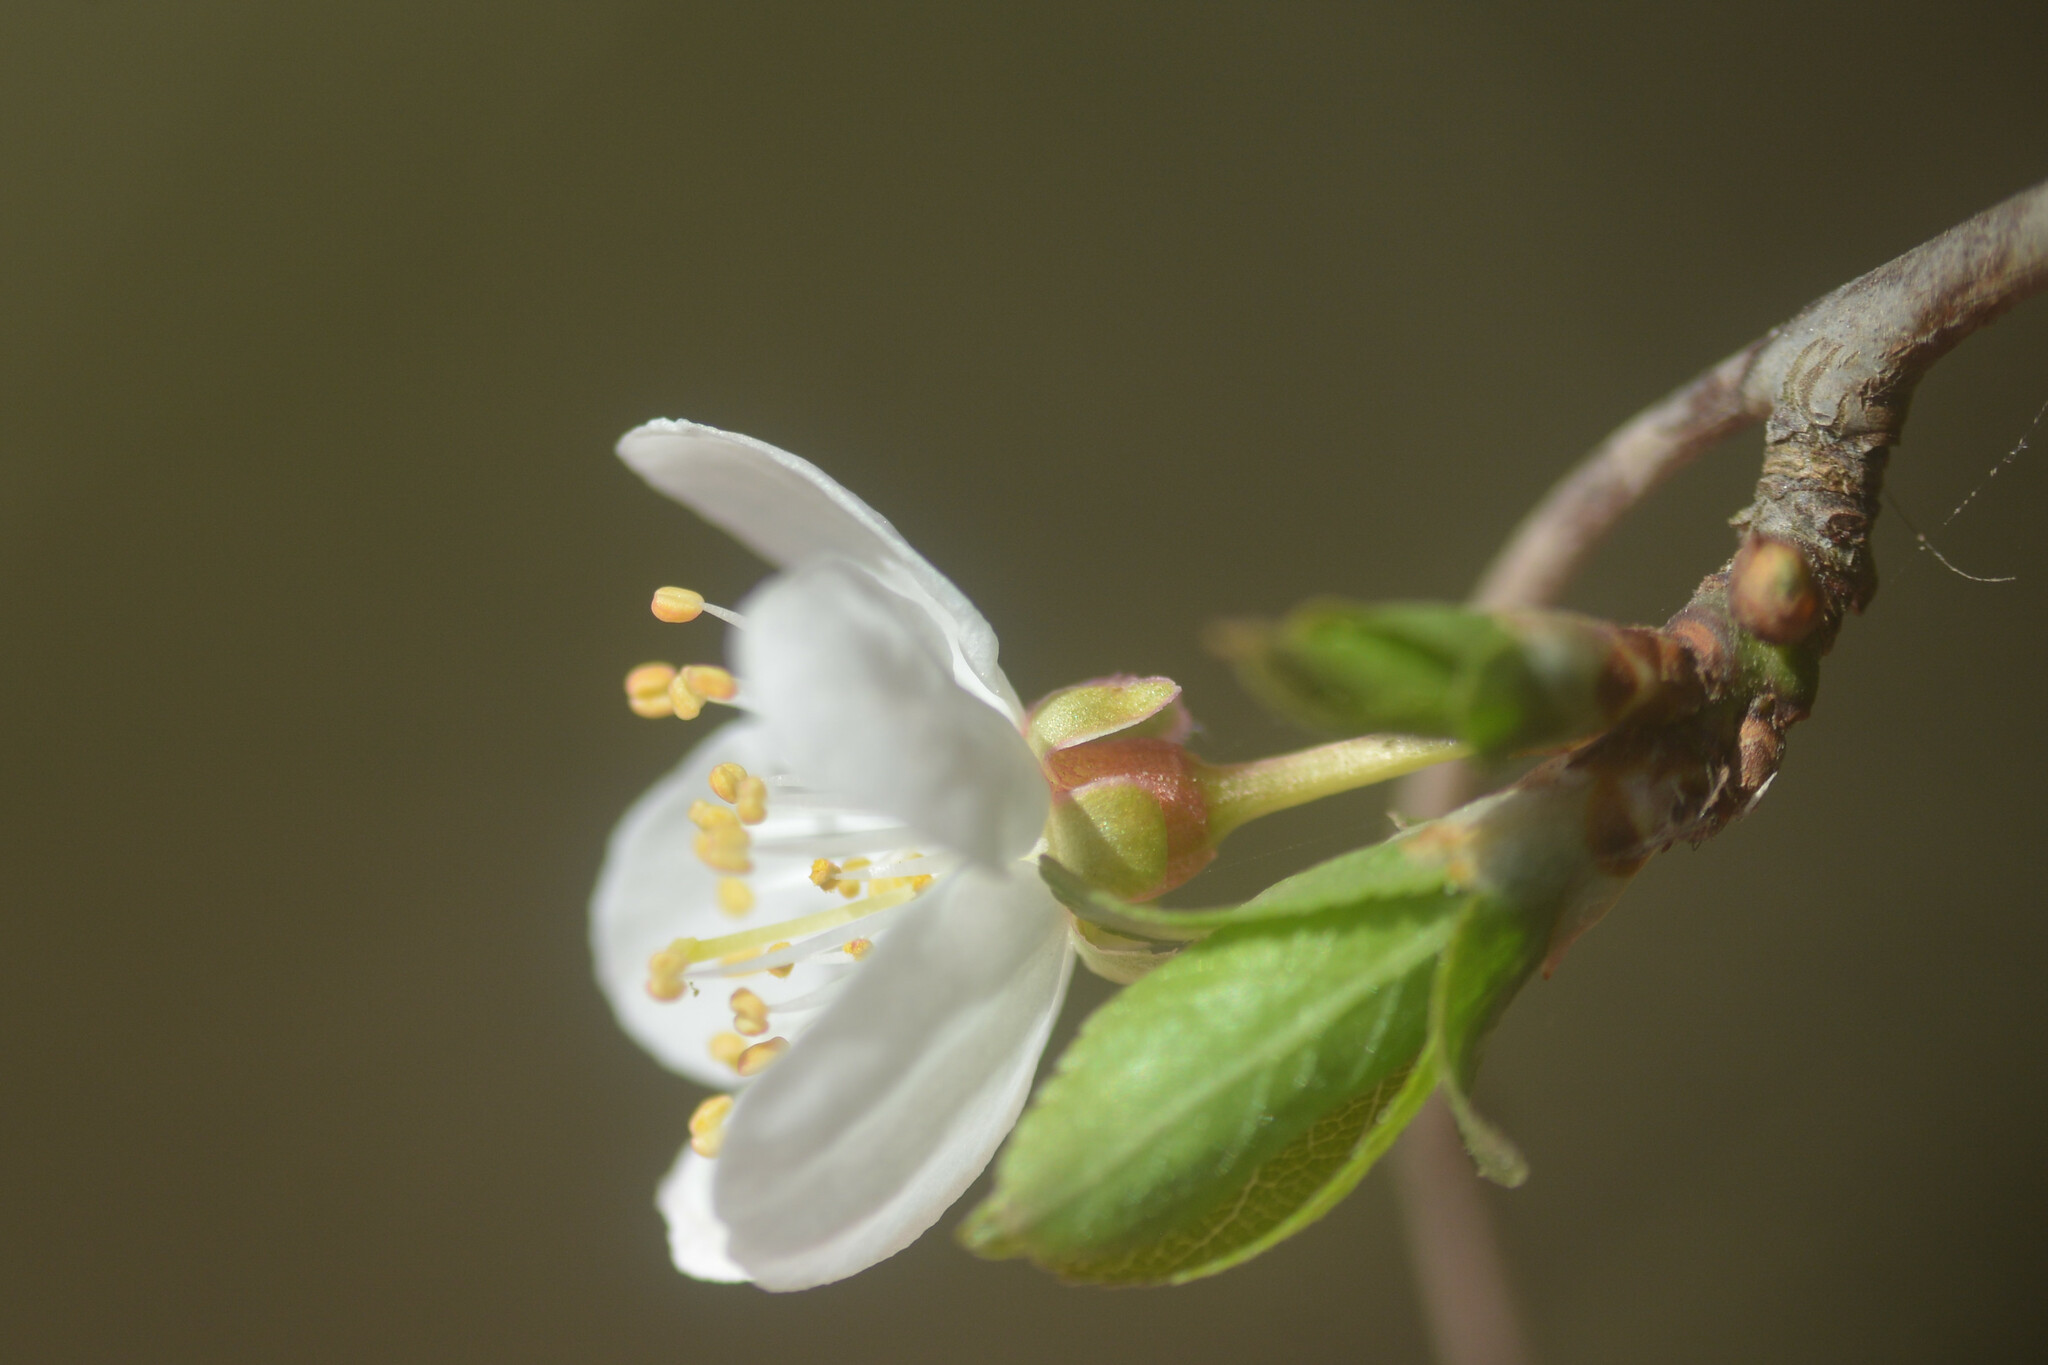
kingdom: Plantae
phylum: Tracheophyta
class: Magnoliopsida
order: Rosales
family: Rosaceae
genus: Prunus
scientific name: Prunus cerasifera
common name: Cherry plum
